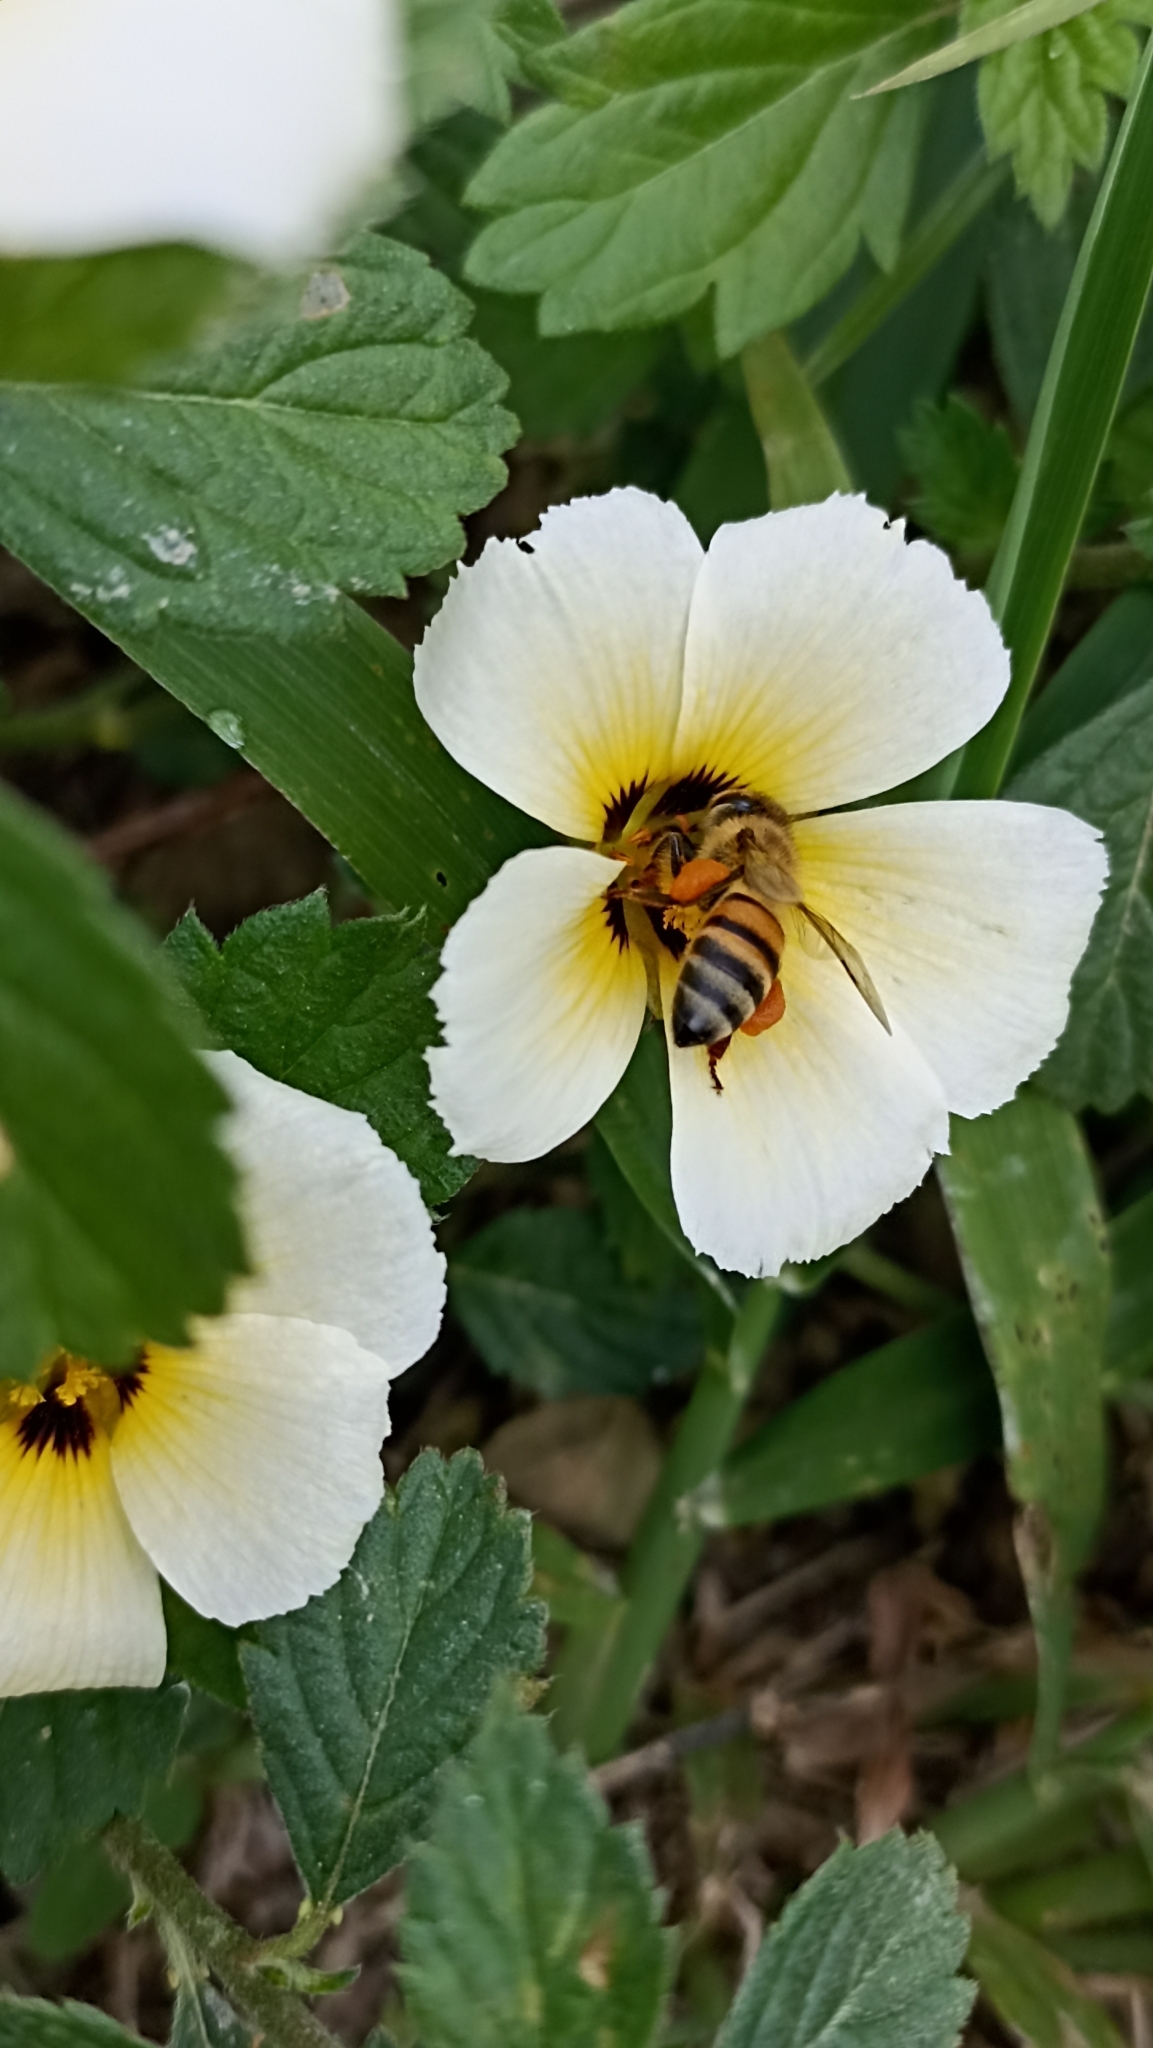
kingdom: Animalia
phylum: Arthropoda
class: Insecta
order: Hymenoptera
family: Apidae
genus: Apis
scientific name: Apis mellifera
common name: Honey bee
